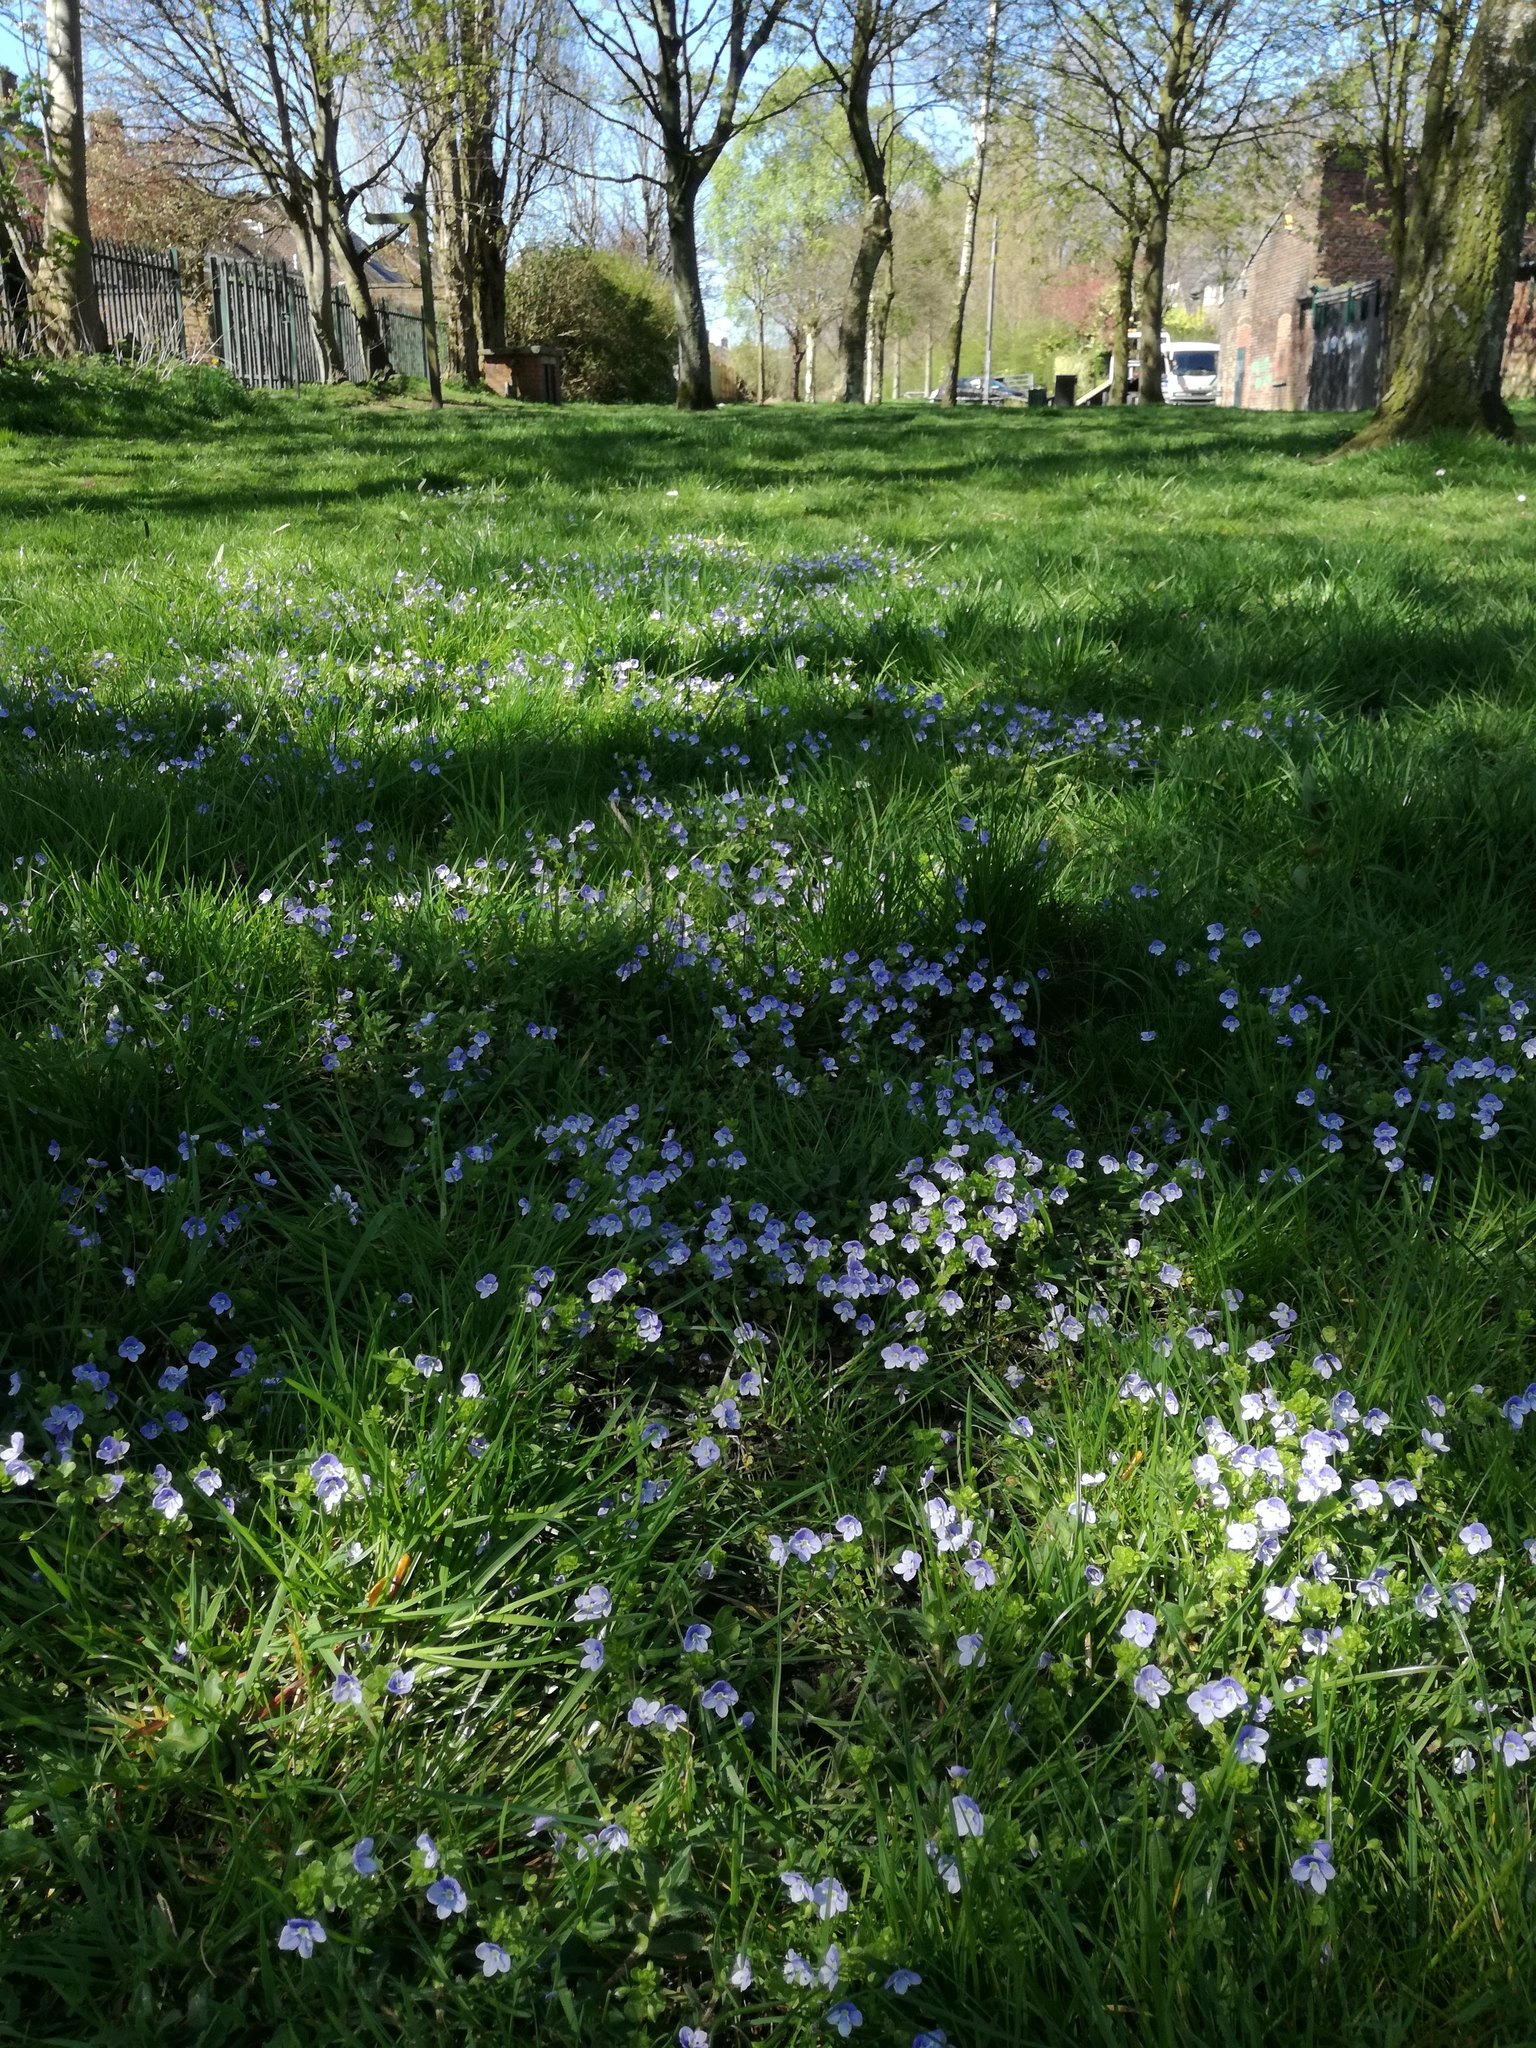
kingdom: Plantae
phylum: Tracheophyta
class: Magnoliopsida
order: Lamiales
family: Plantaginaceae
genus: Veronica
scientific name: Veronica filiformis
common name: Slender speedwell
